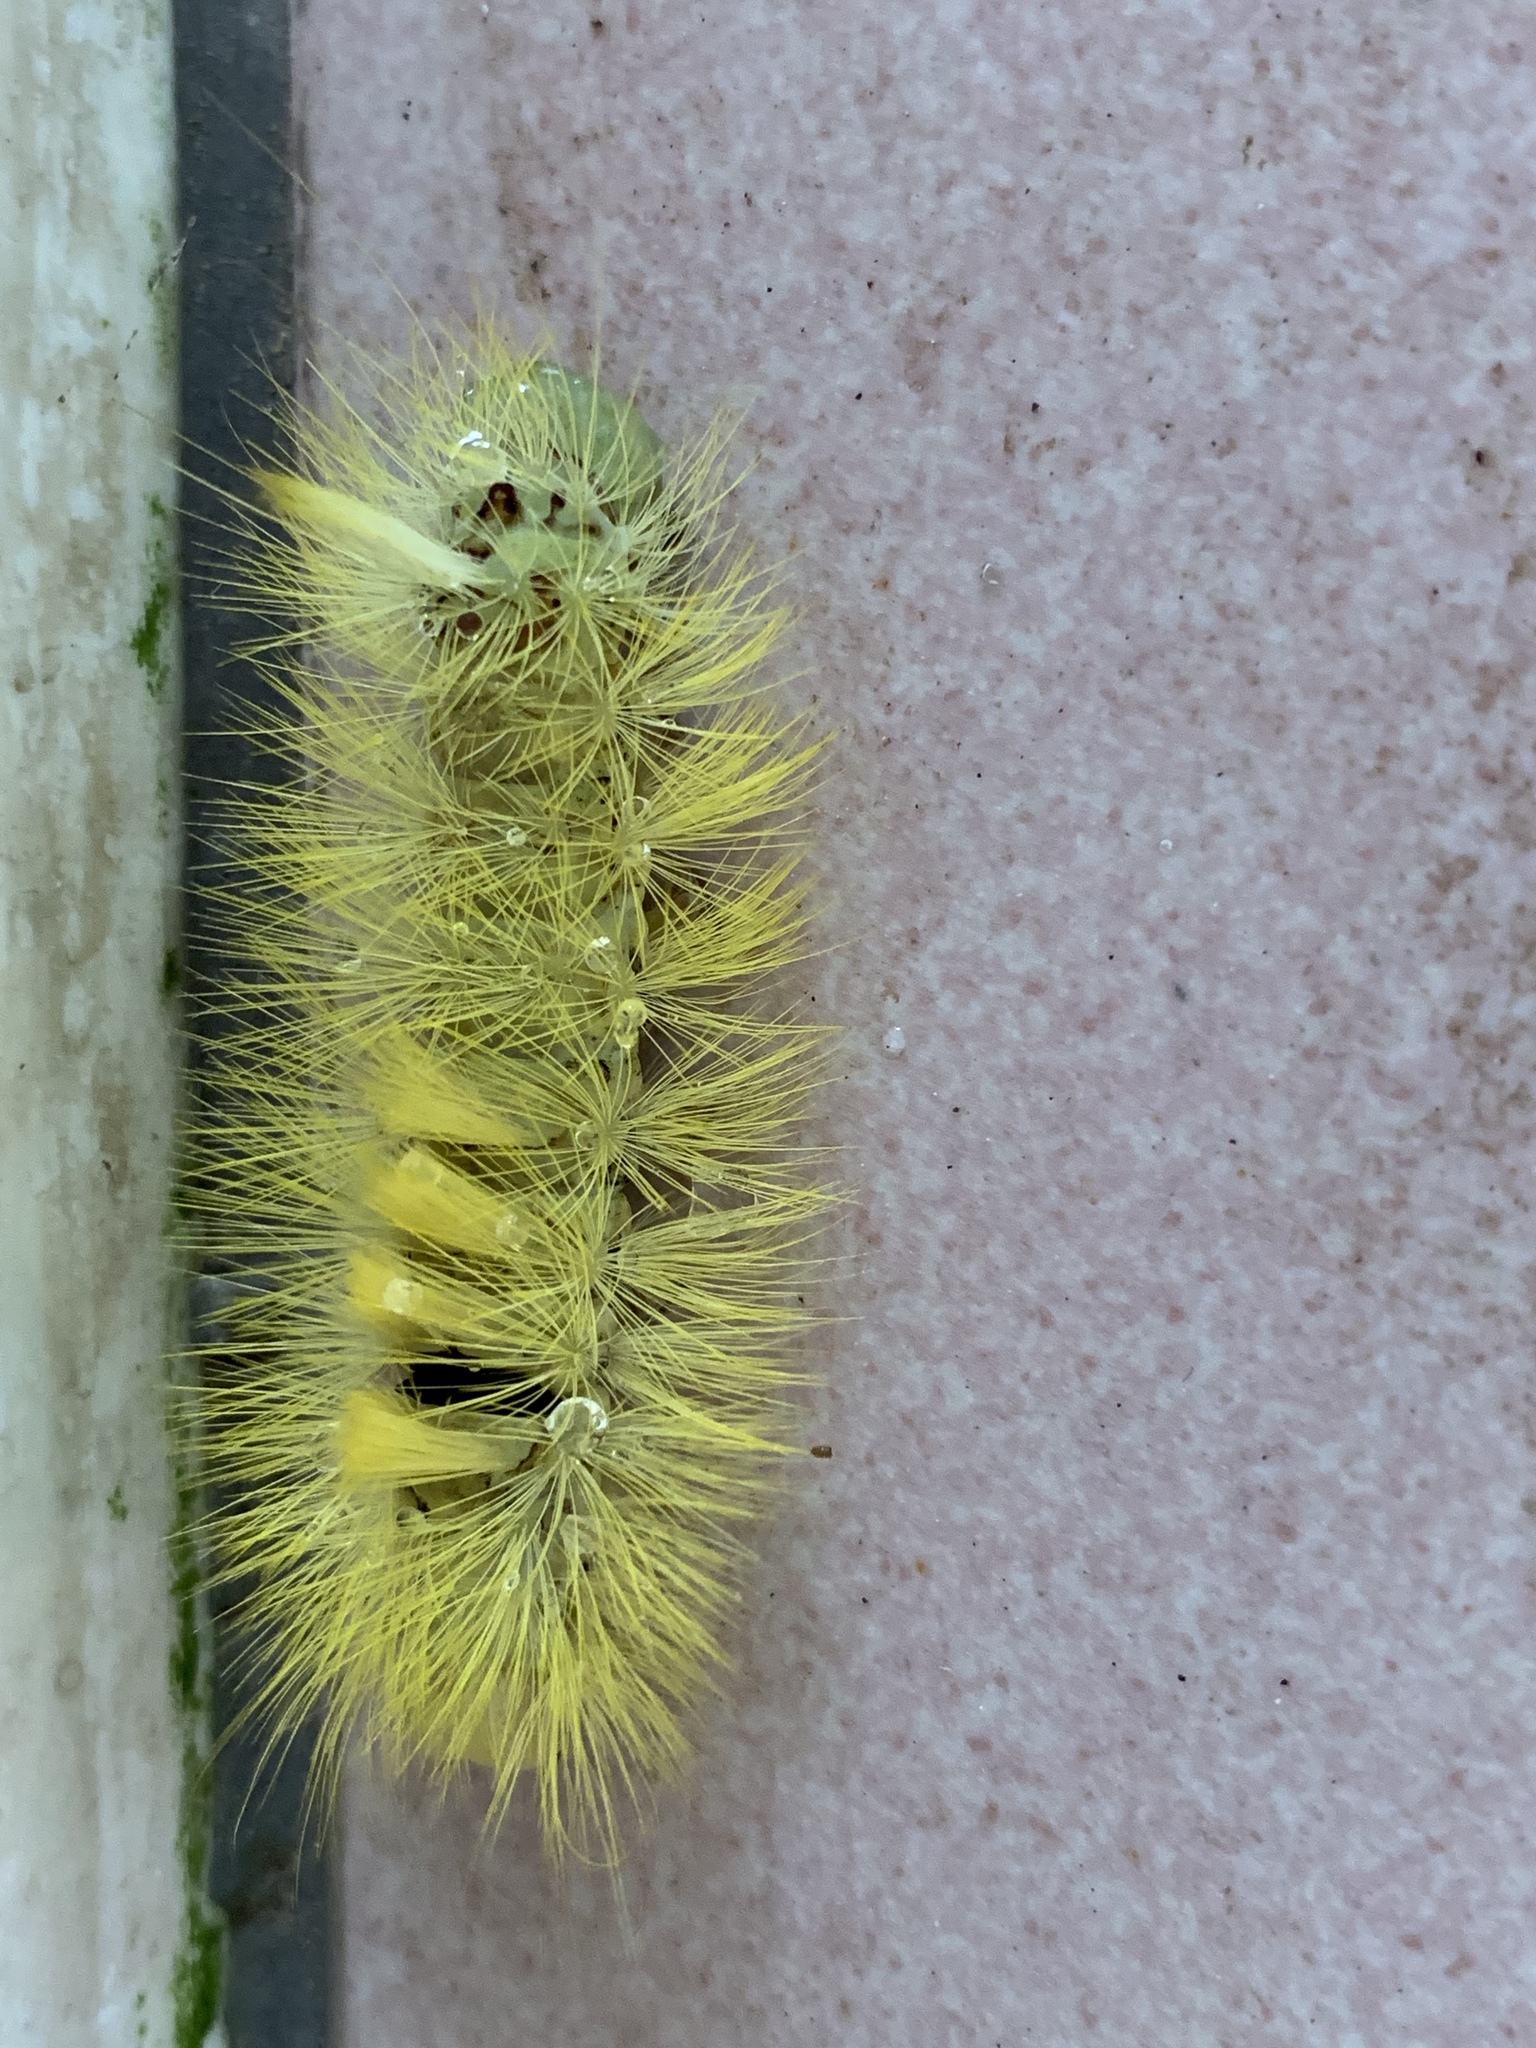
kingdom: Animalia
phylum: Arthropoda
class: Insecta
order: Lepidoptera
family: Erebidae
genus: Calliteara
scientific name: Calliteara grotei
